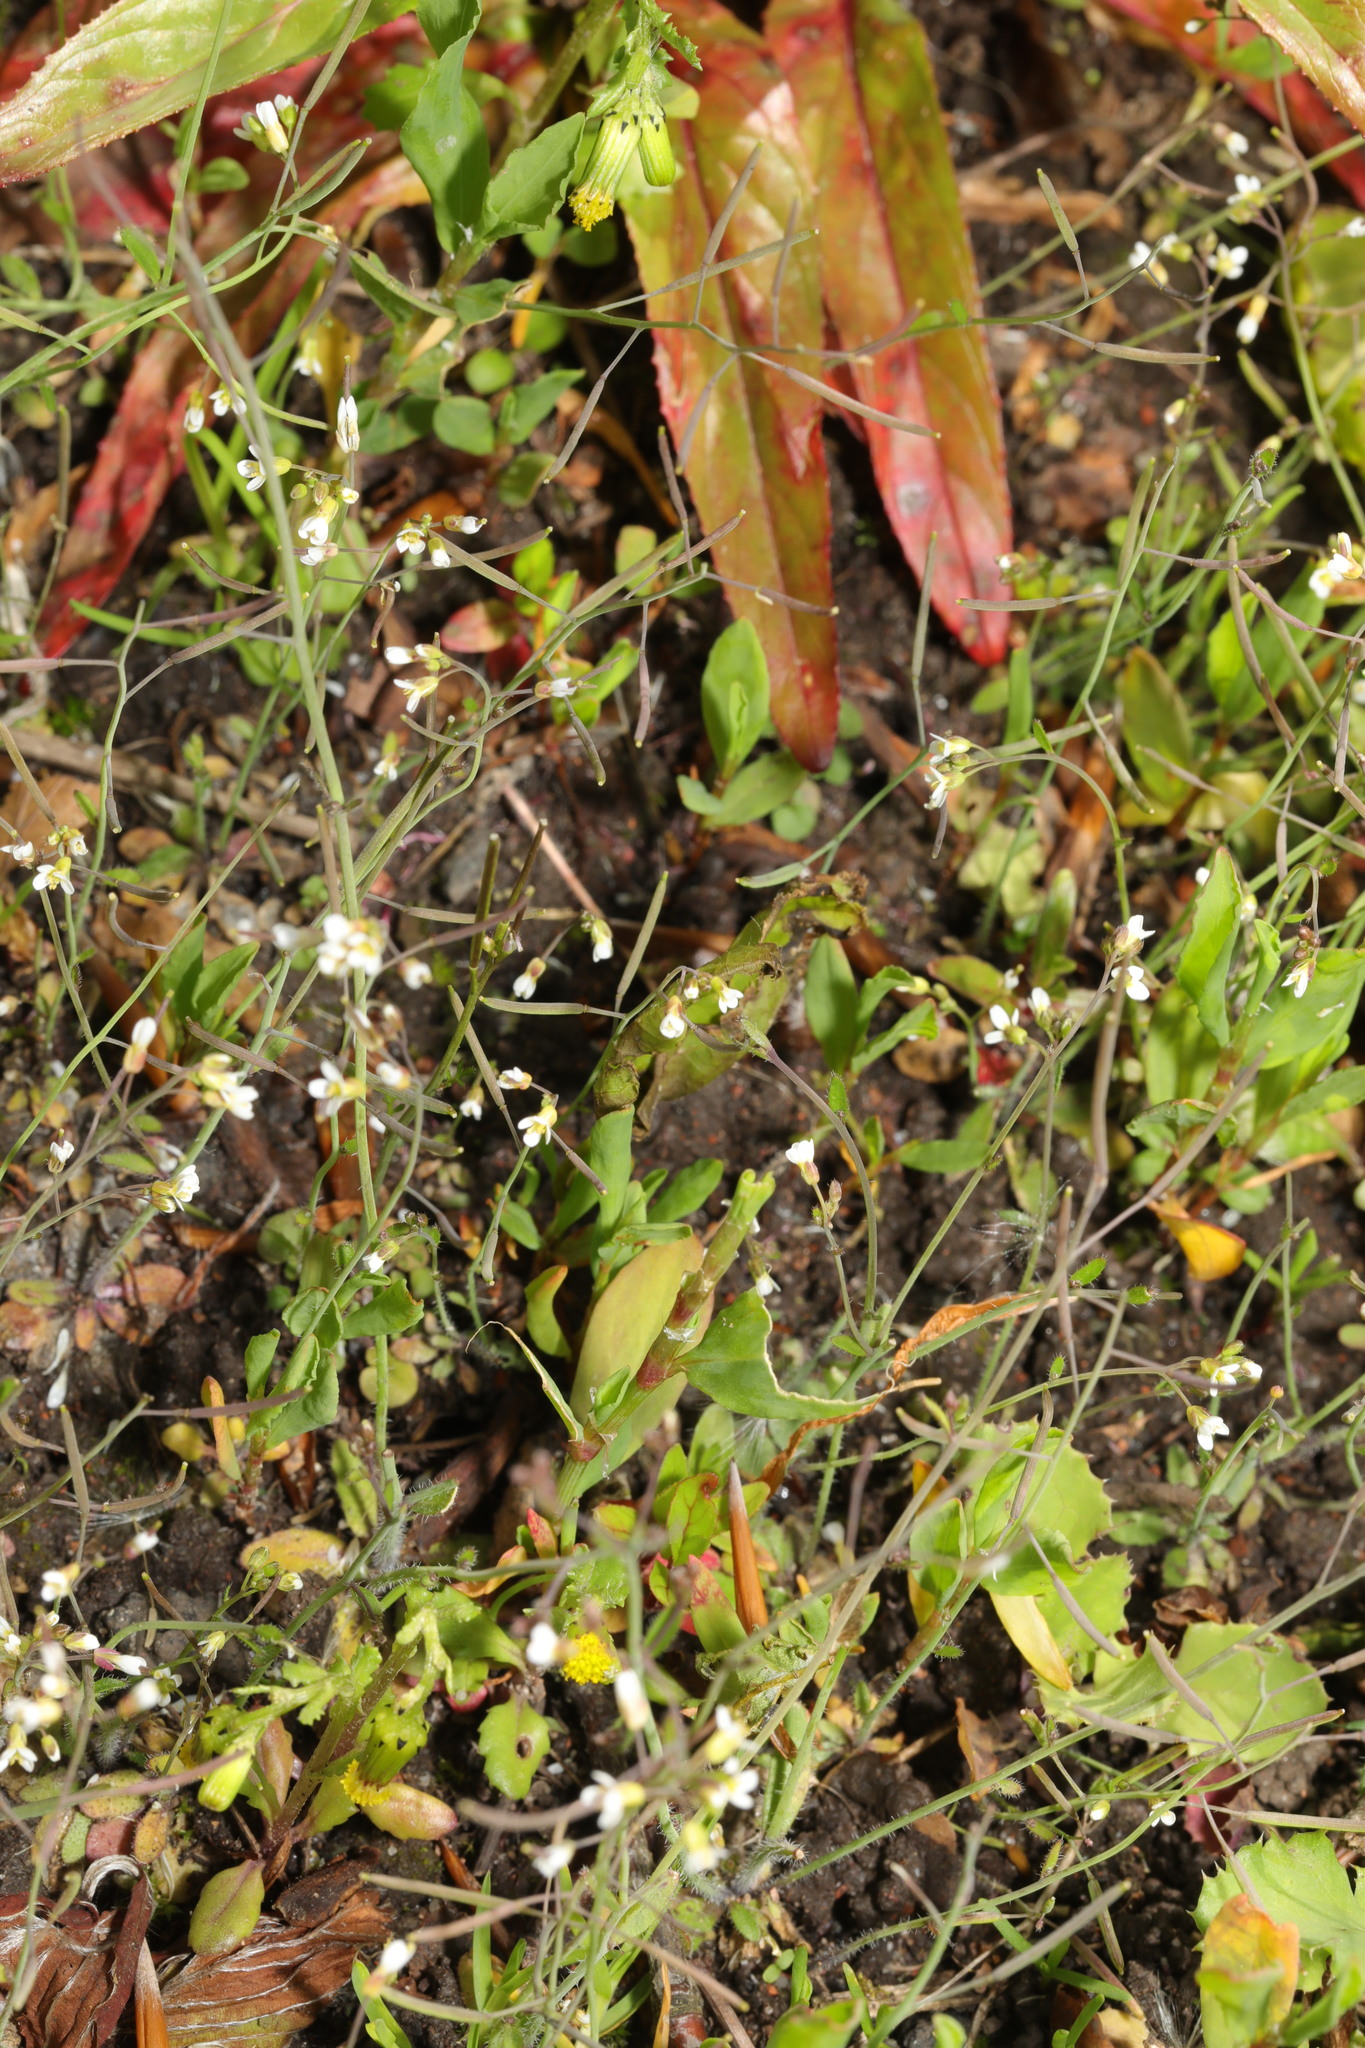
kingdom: Plantae
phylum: Tracheophyta
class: Magnoliopsida
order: Brassicales
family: Brassicaceae
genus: Arabidopsis
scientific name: Arabidopsis thaliana
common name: Thale cress
